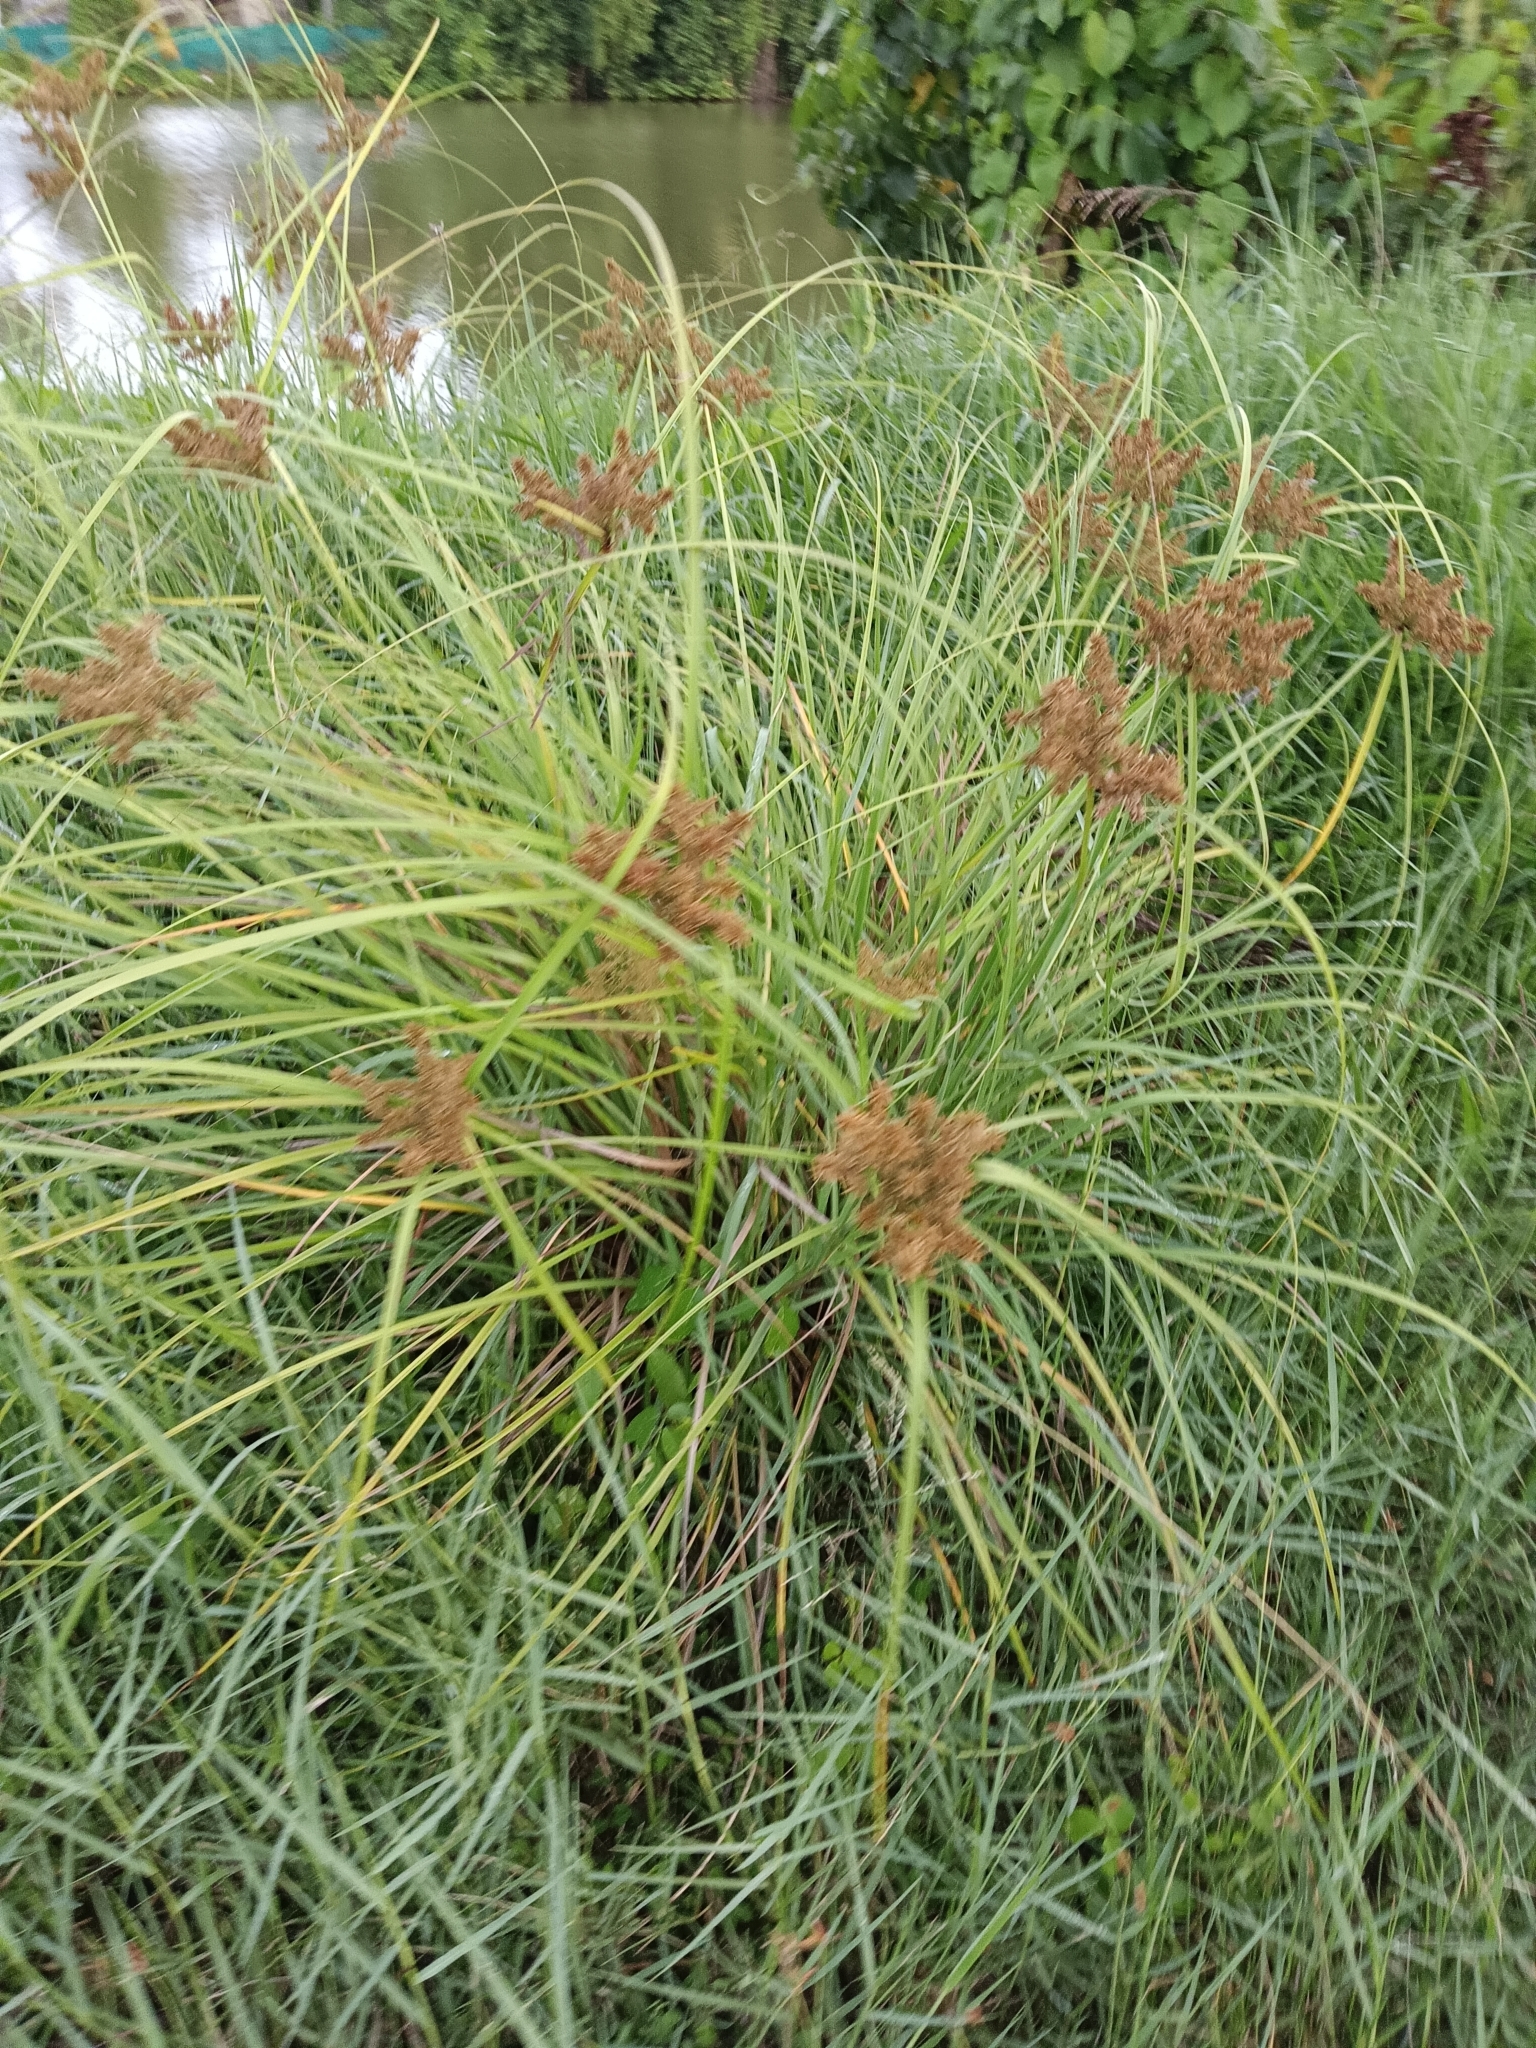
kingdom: Plantae
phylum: Tracheophyta
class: Liliopsida
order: Poales
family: Cyperaceae
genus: Cyperus
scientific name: Cyperus javanicus
